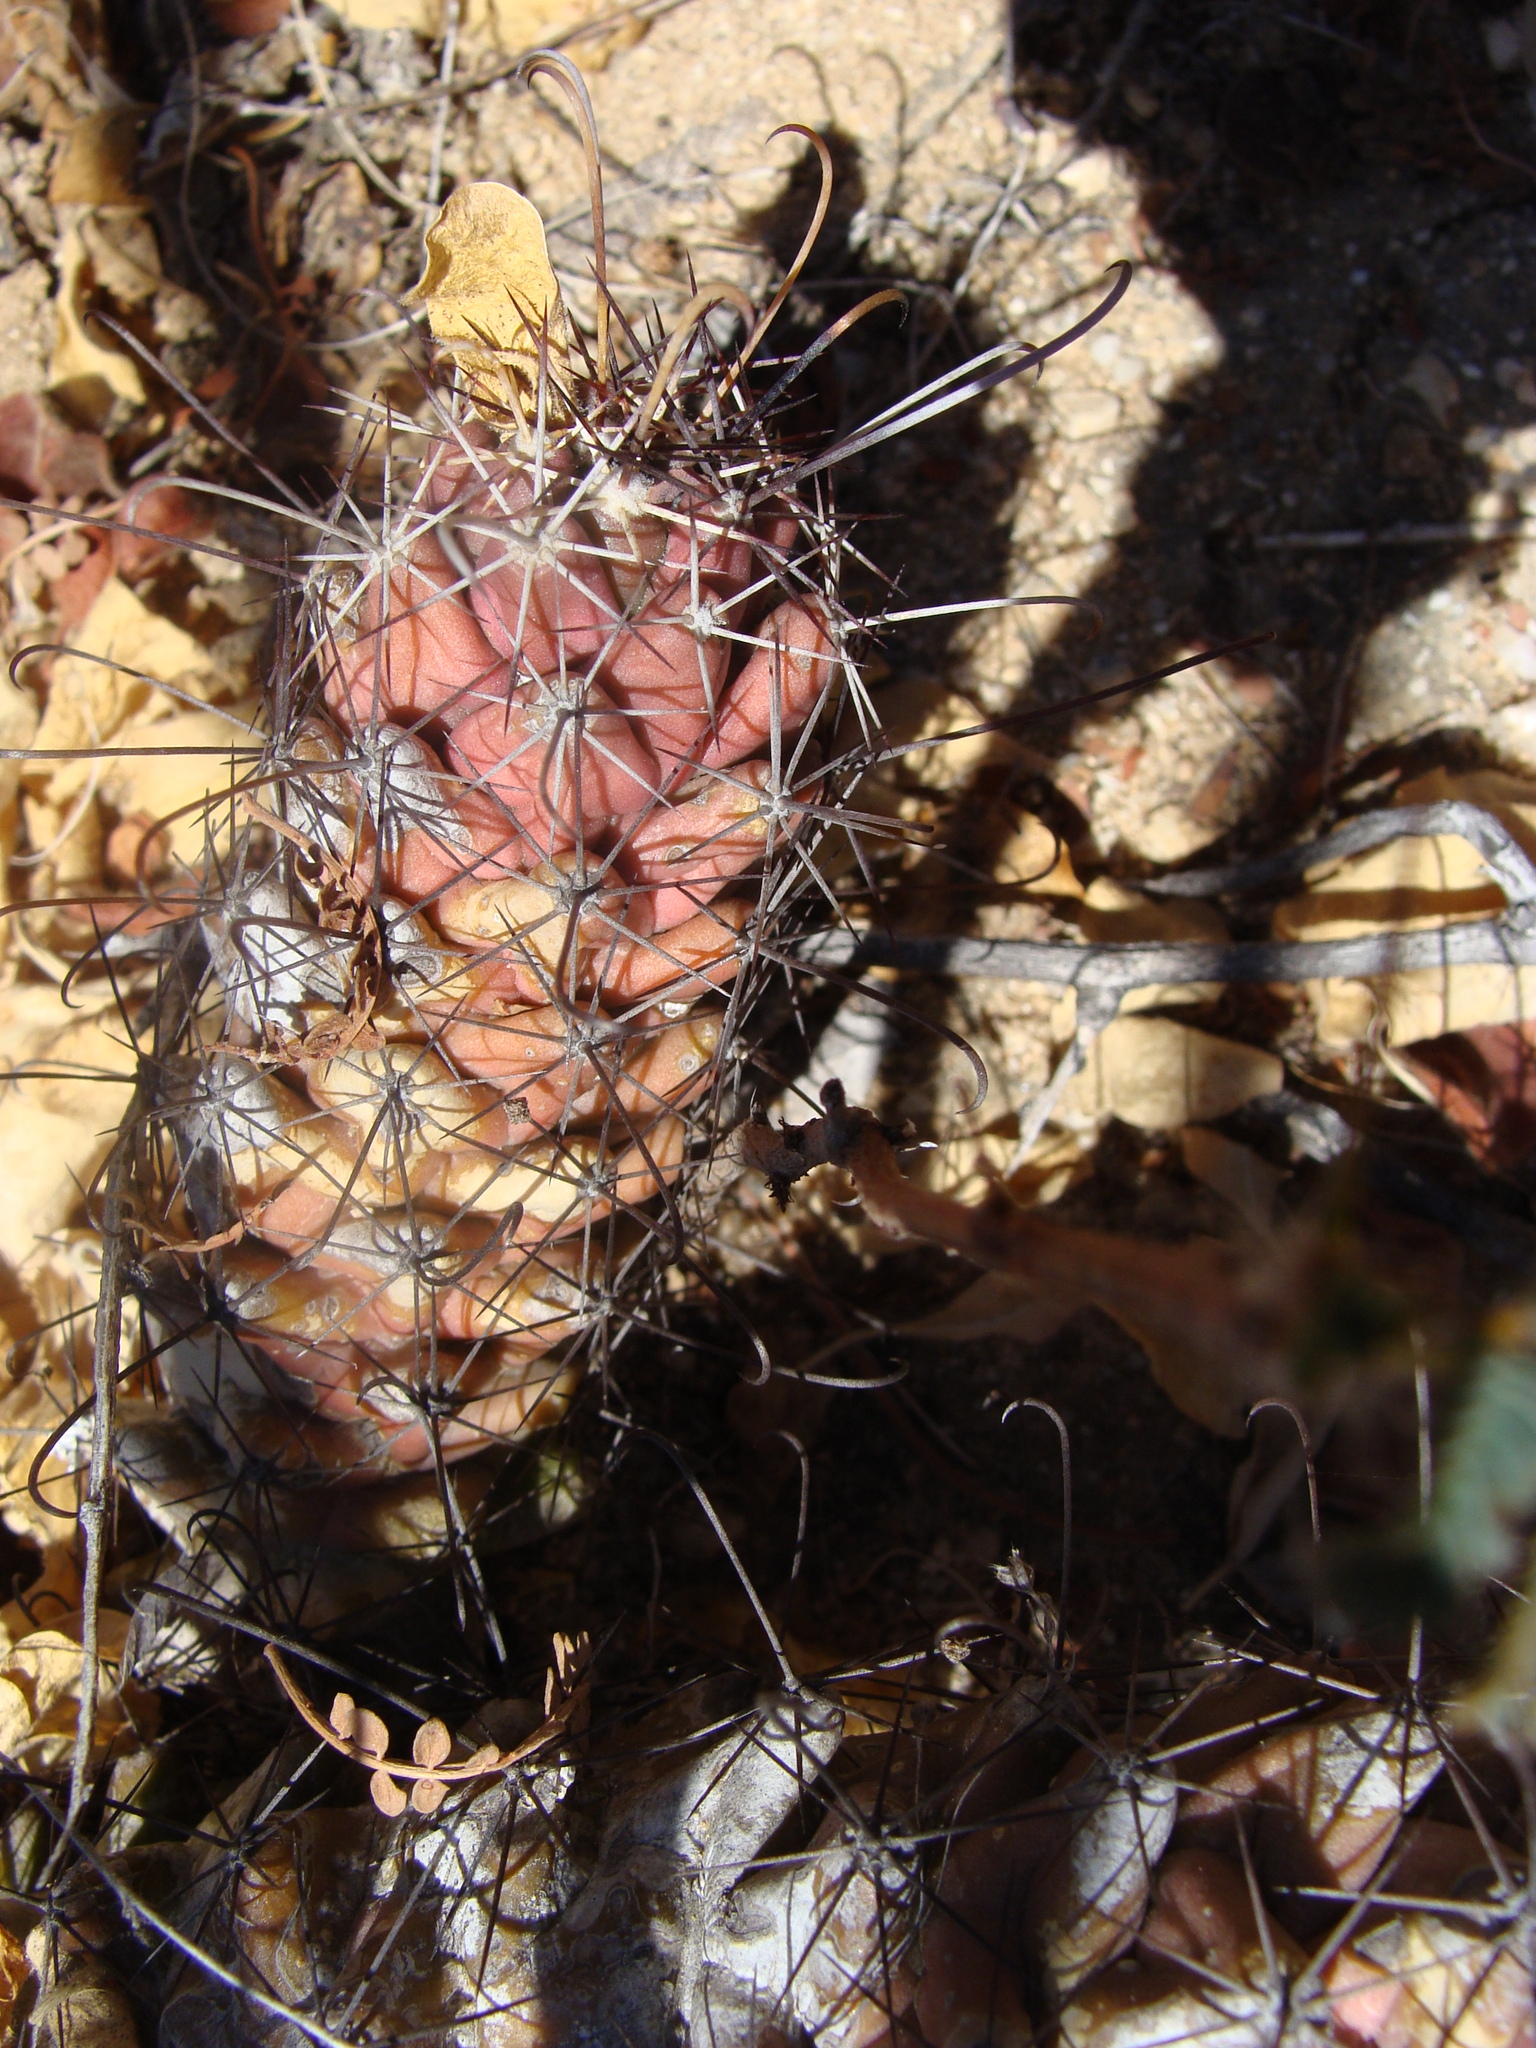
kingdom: Plantae
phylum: Tracheophyta
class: Magnoliopsida
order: Caryophyllales
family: Cactaceae
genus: Cochemiea
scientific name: Cochemiea poselgeri
